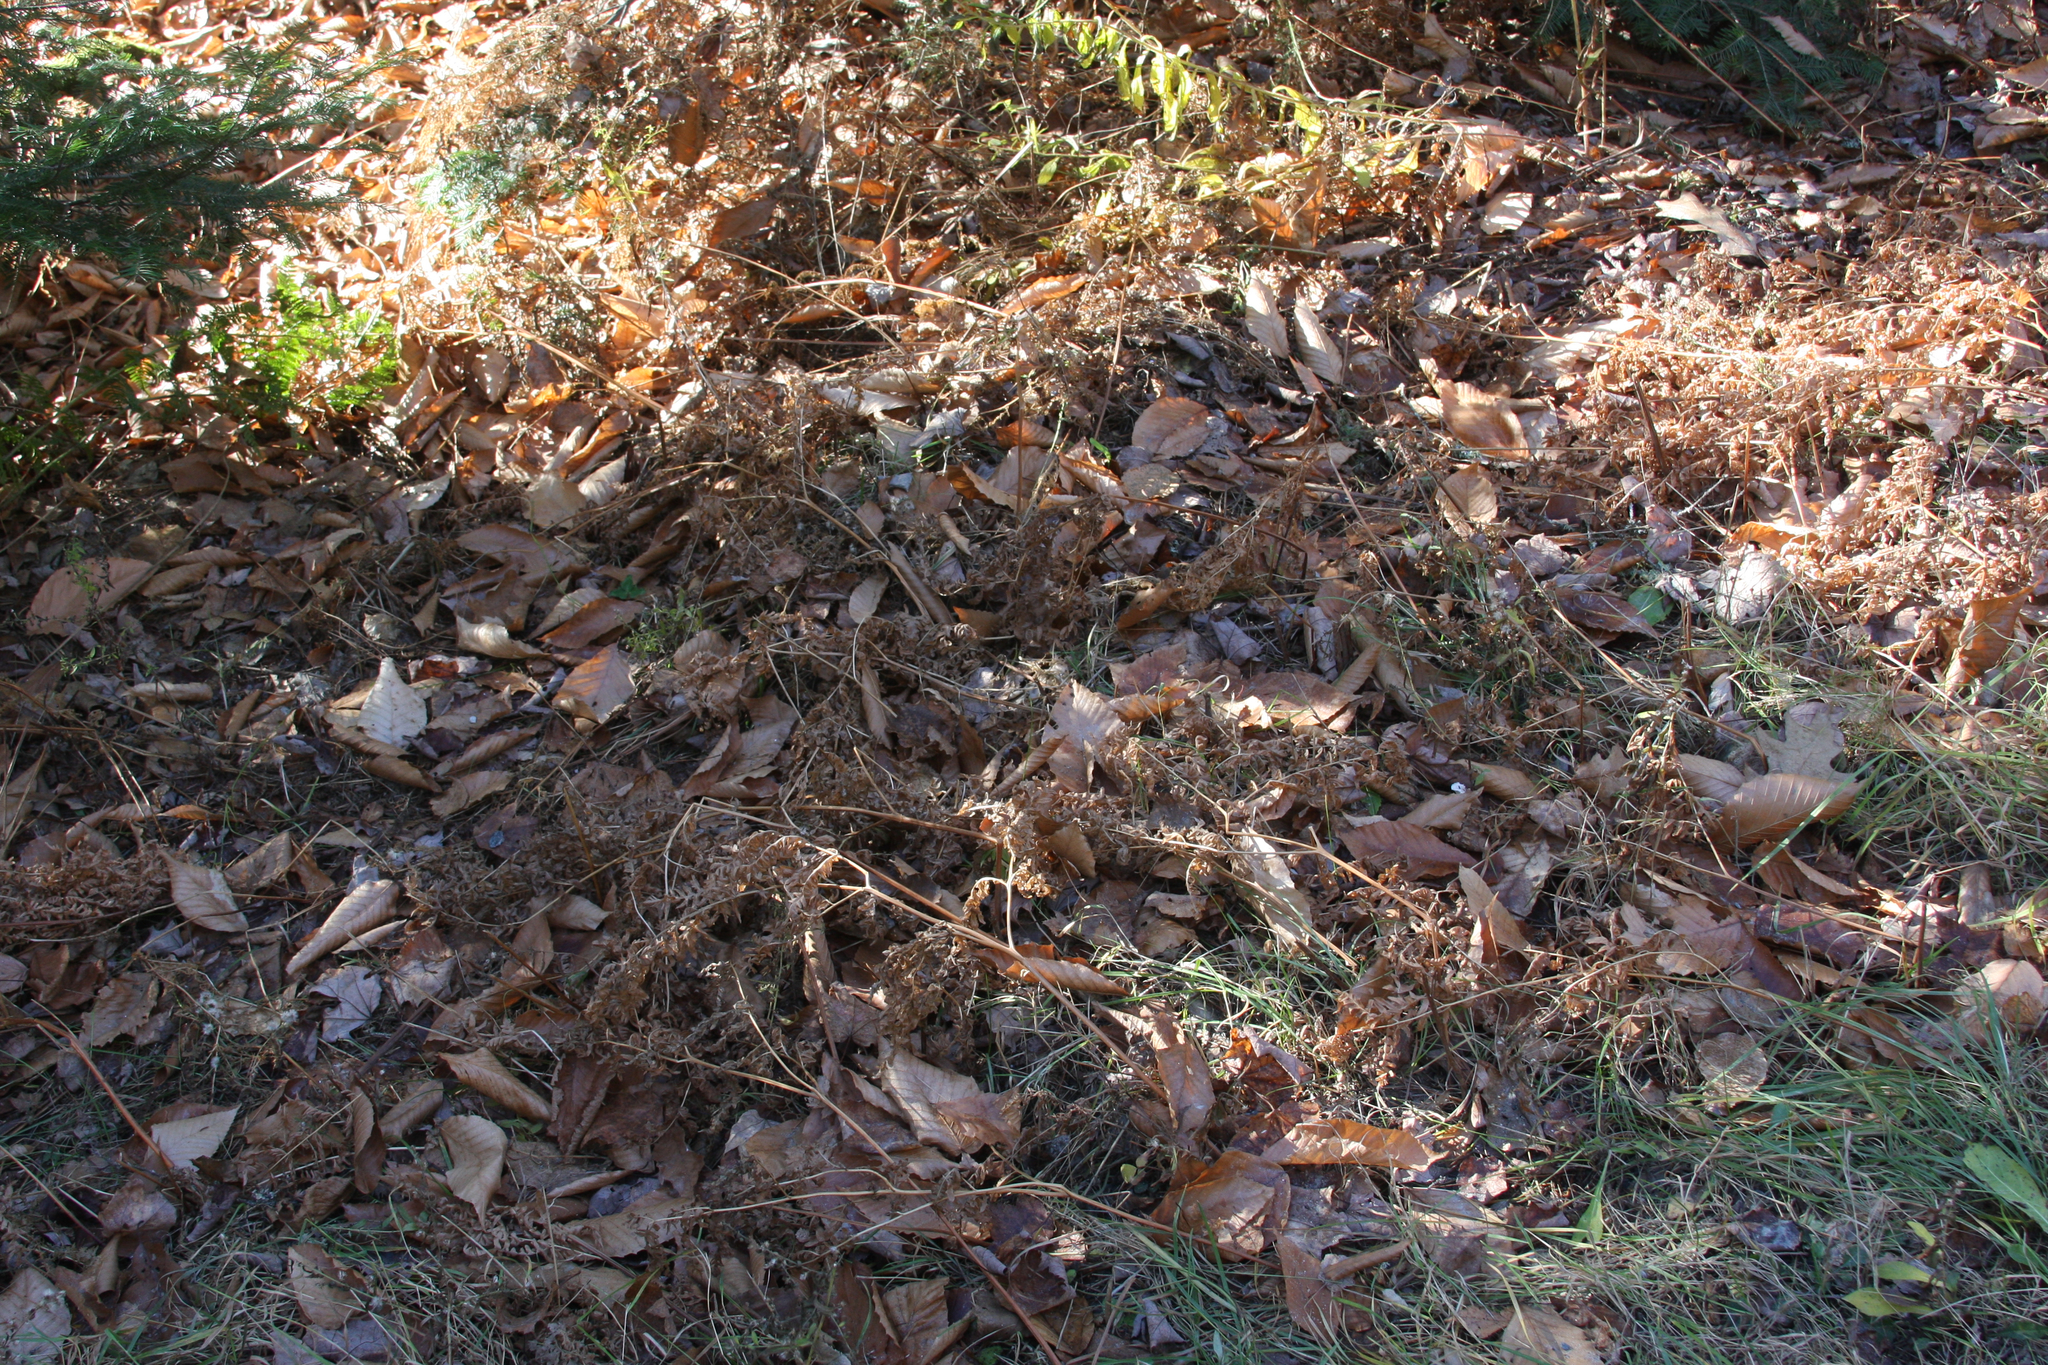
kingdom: Plantae
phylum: Tracheophyta
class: Polypodiopsida
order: Polypodiales
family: Dennstaedtiaceae
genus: Pteridium
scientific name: Pteridium aquilinum
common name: Bracken
